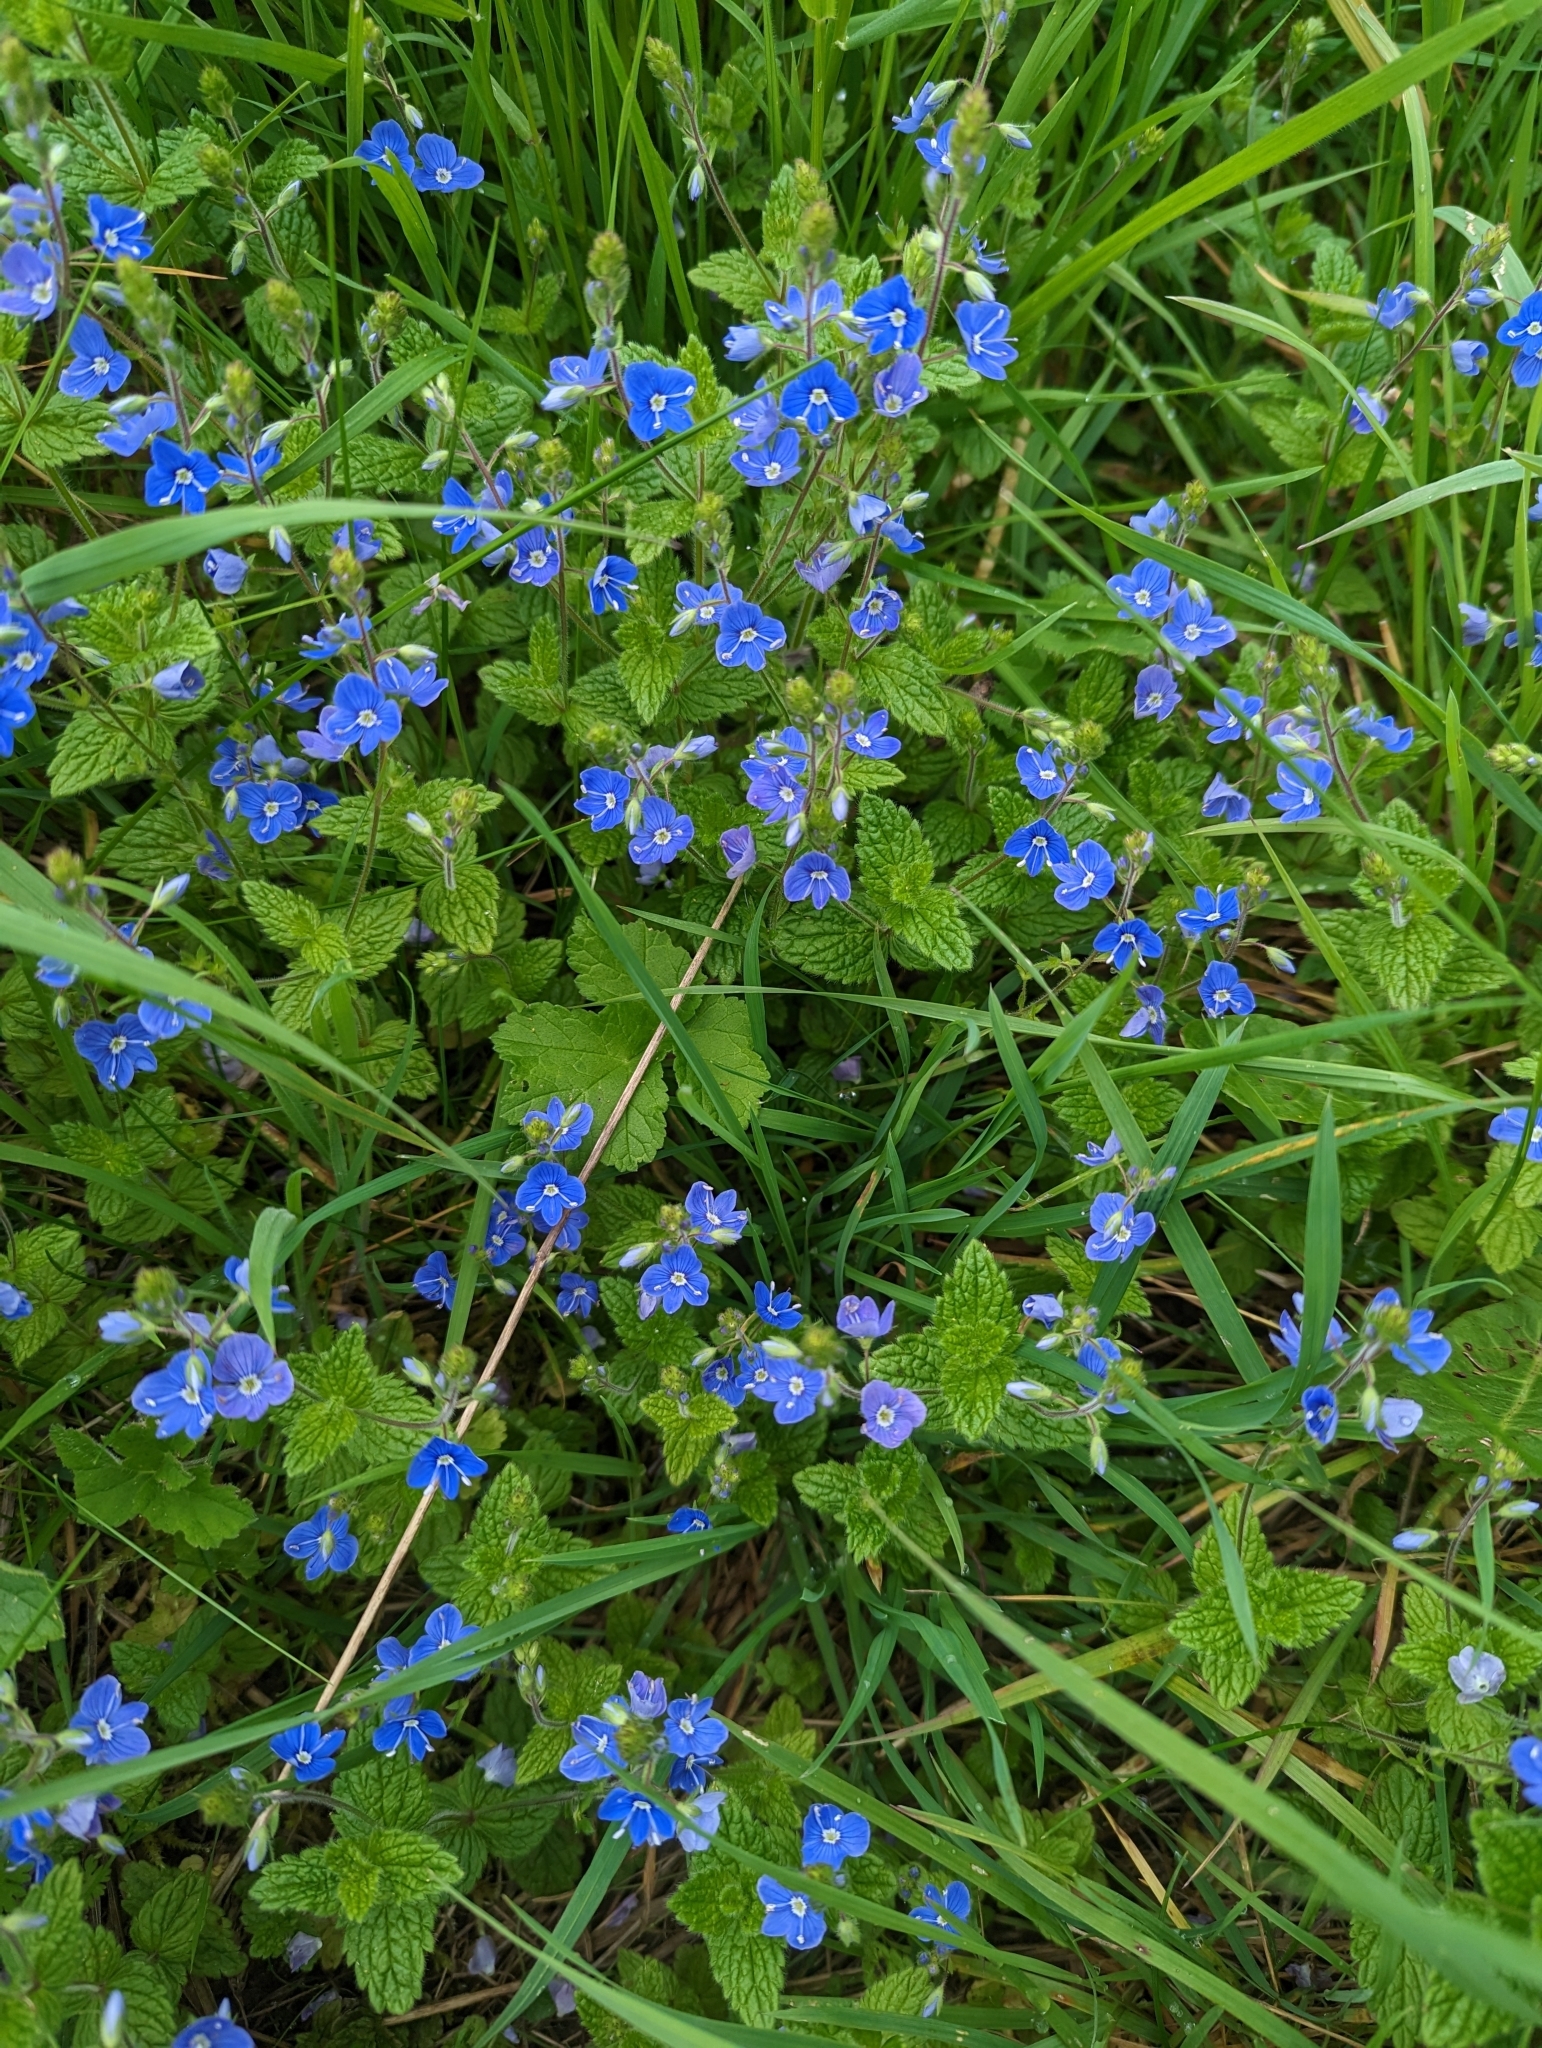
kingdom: Plantae
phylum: Tracheophyta
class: Magnoliopsida
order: Lamiales
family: Plantaginaceae
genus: Veronica
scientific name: Veronica chamaedrys
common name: Germander speedwell
